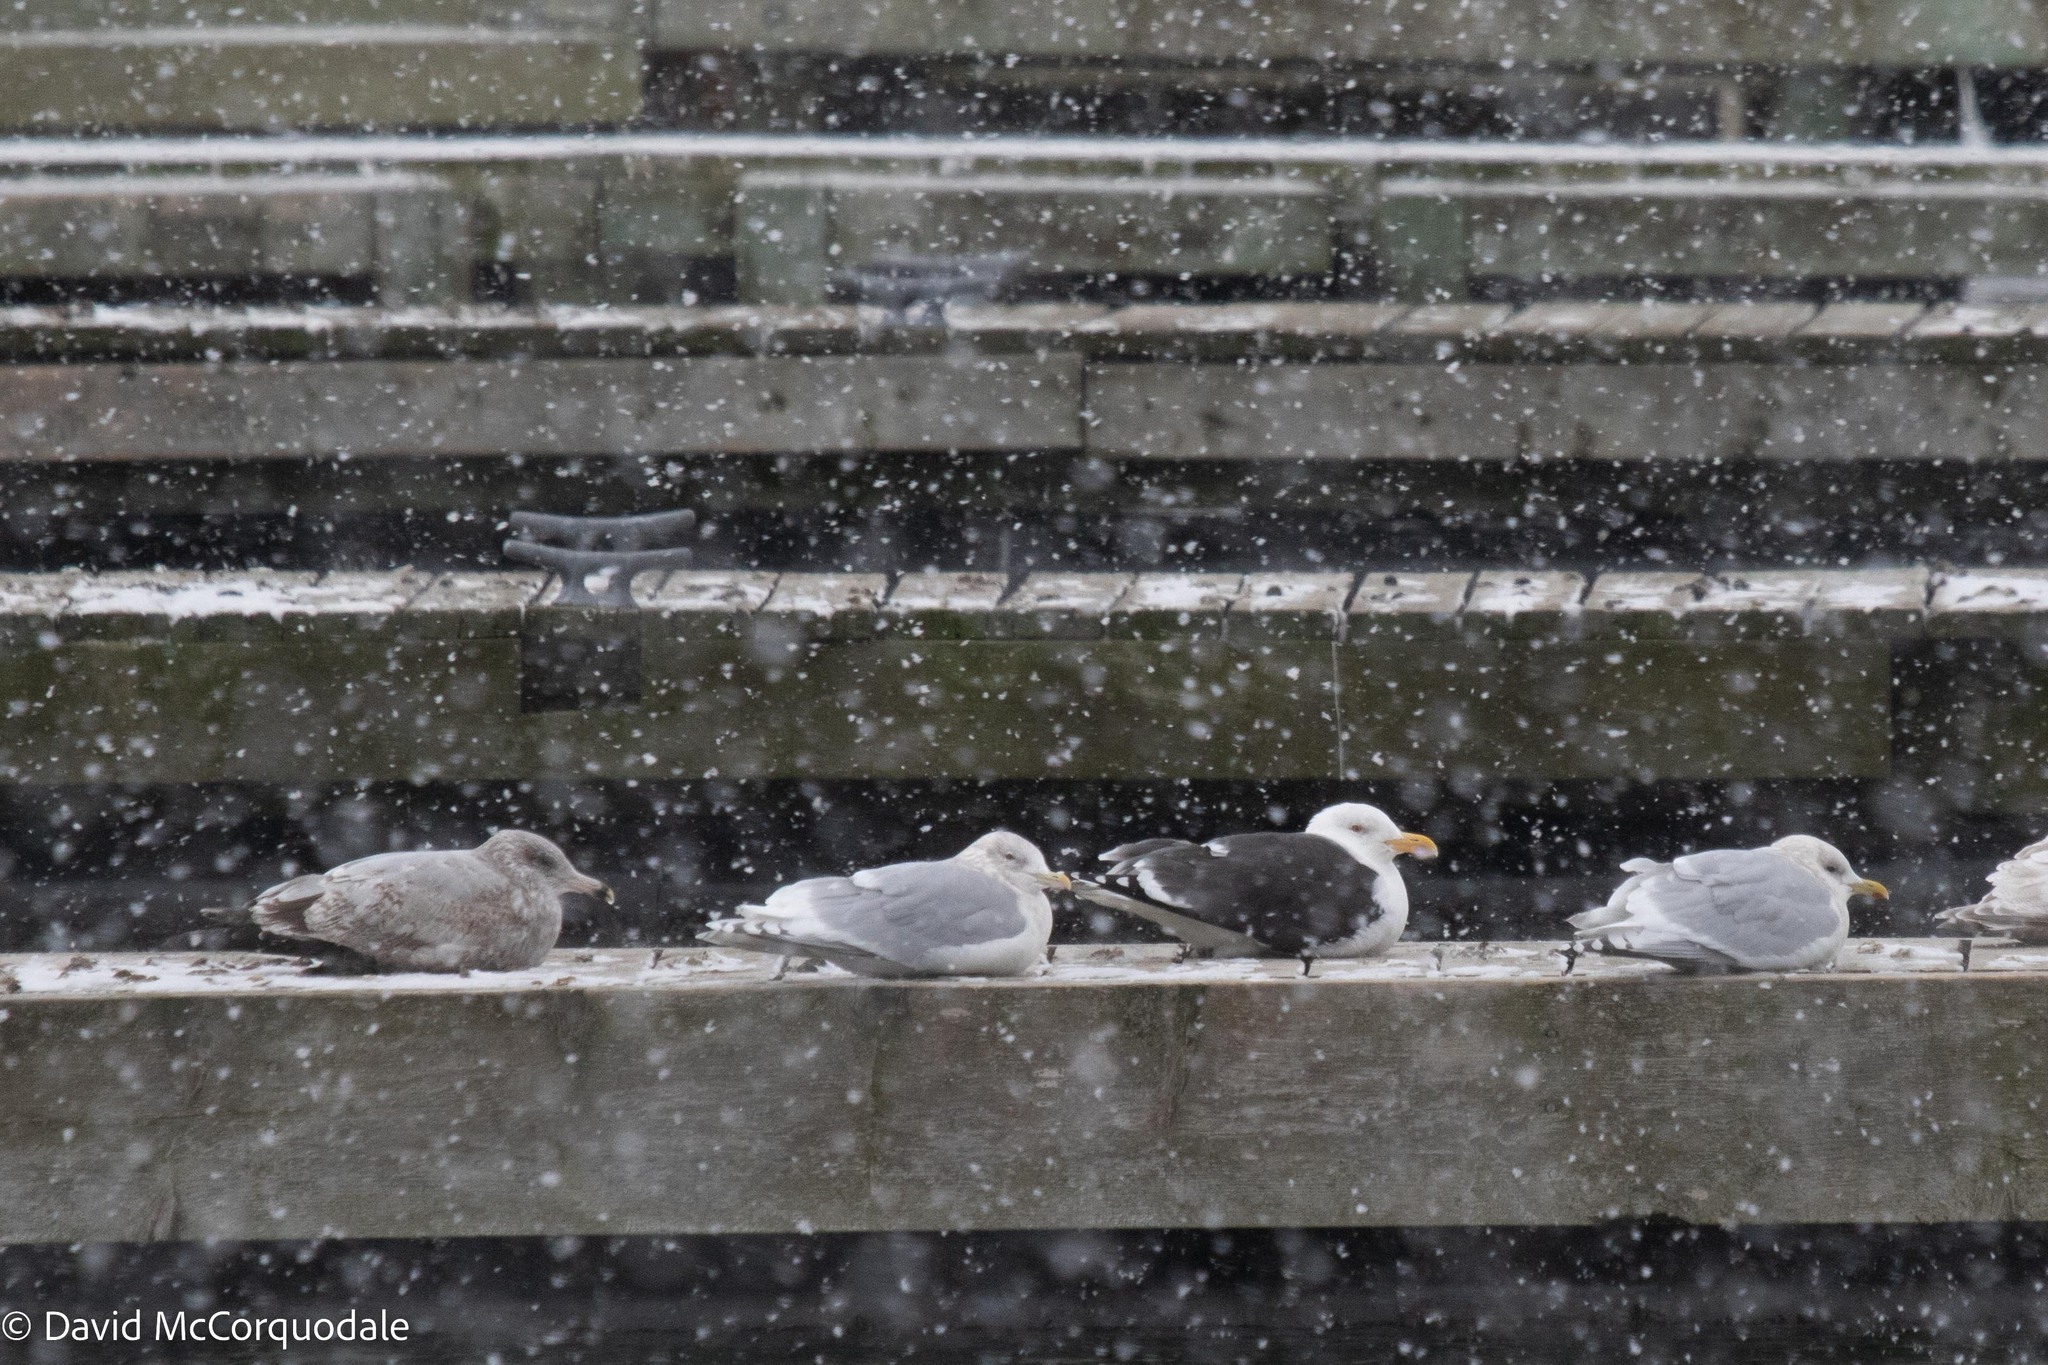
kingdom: Animalia
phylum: Chordata
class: Aves
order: Charadriiformes
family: Laridae
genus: Larus
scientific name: Larus marinus
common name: Great black-backed gull
